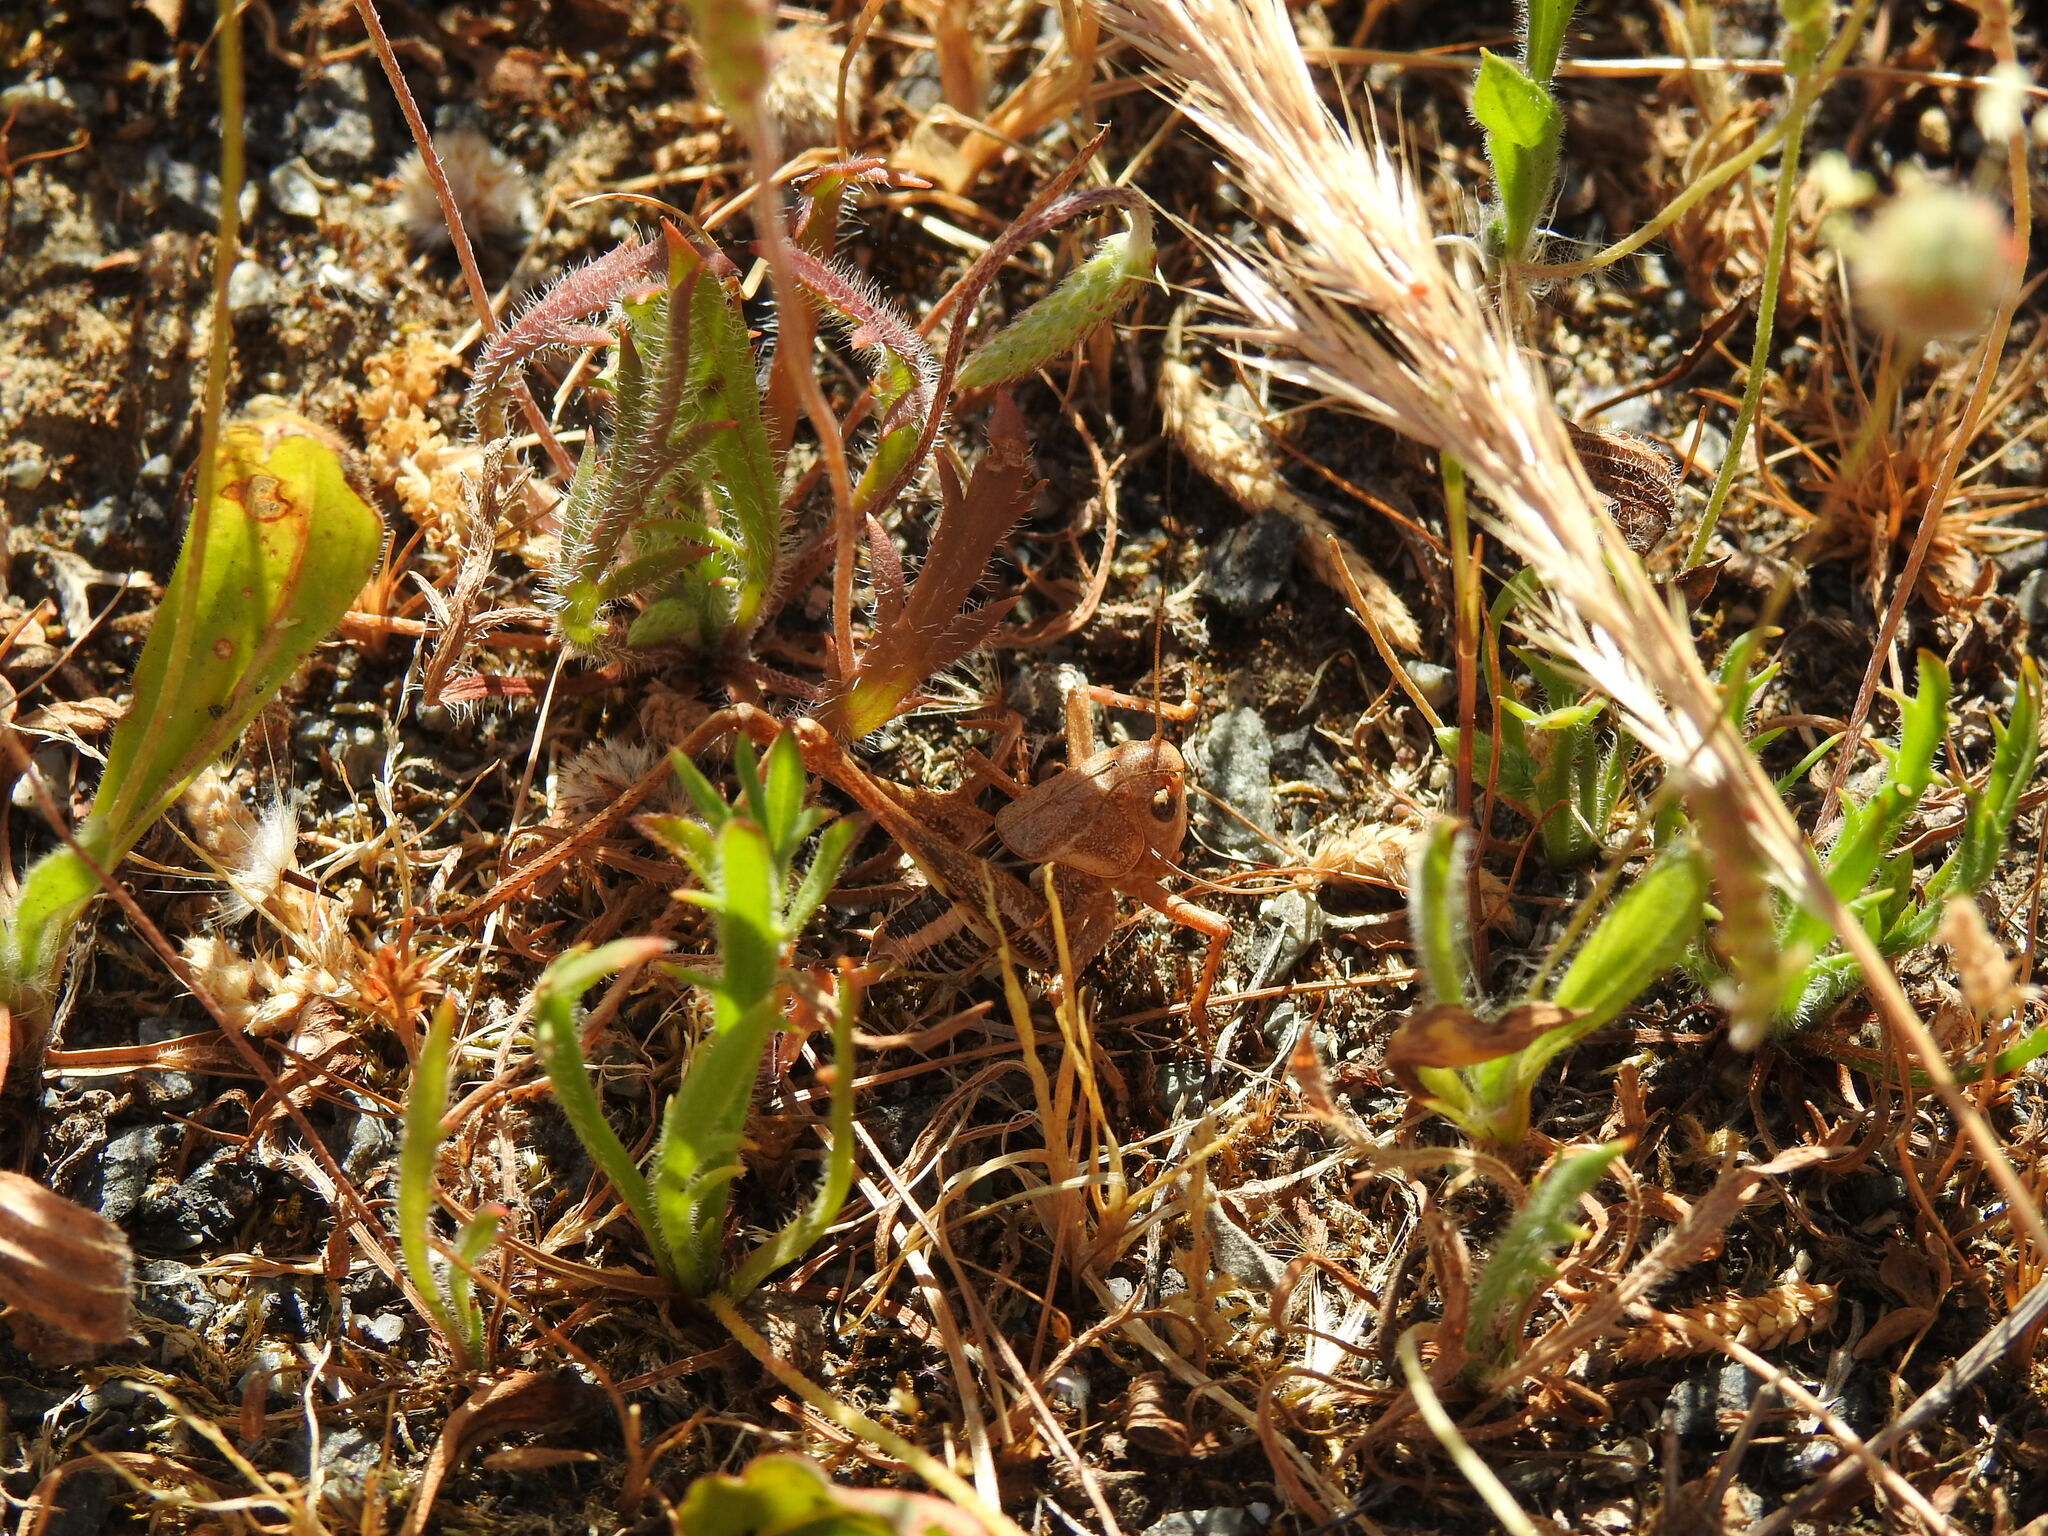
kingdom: Animalia
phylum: Arthropoda
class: Insecta
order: Orthoptera
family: Tettigoniidae
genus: Decticus
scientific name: Decticus albifrons
